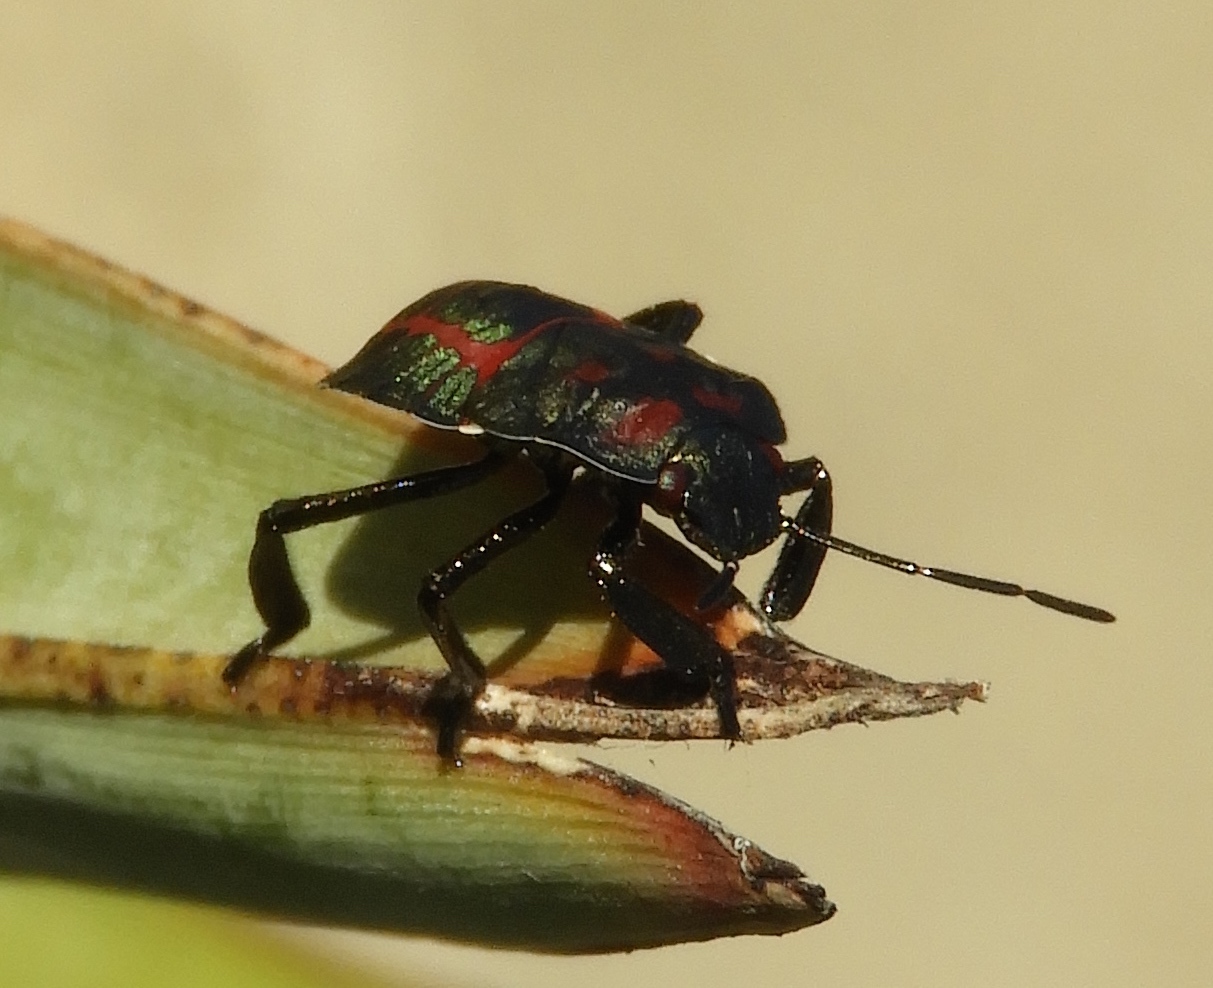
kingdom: Animalia
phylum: Arthropoda
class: Insecta
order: Hemiptera
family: Pentatomidae
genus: Pellaea
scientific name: Pellaea stictica
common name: Stink bug
